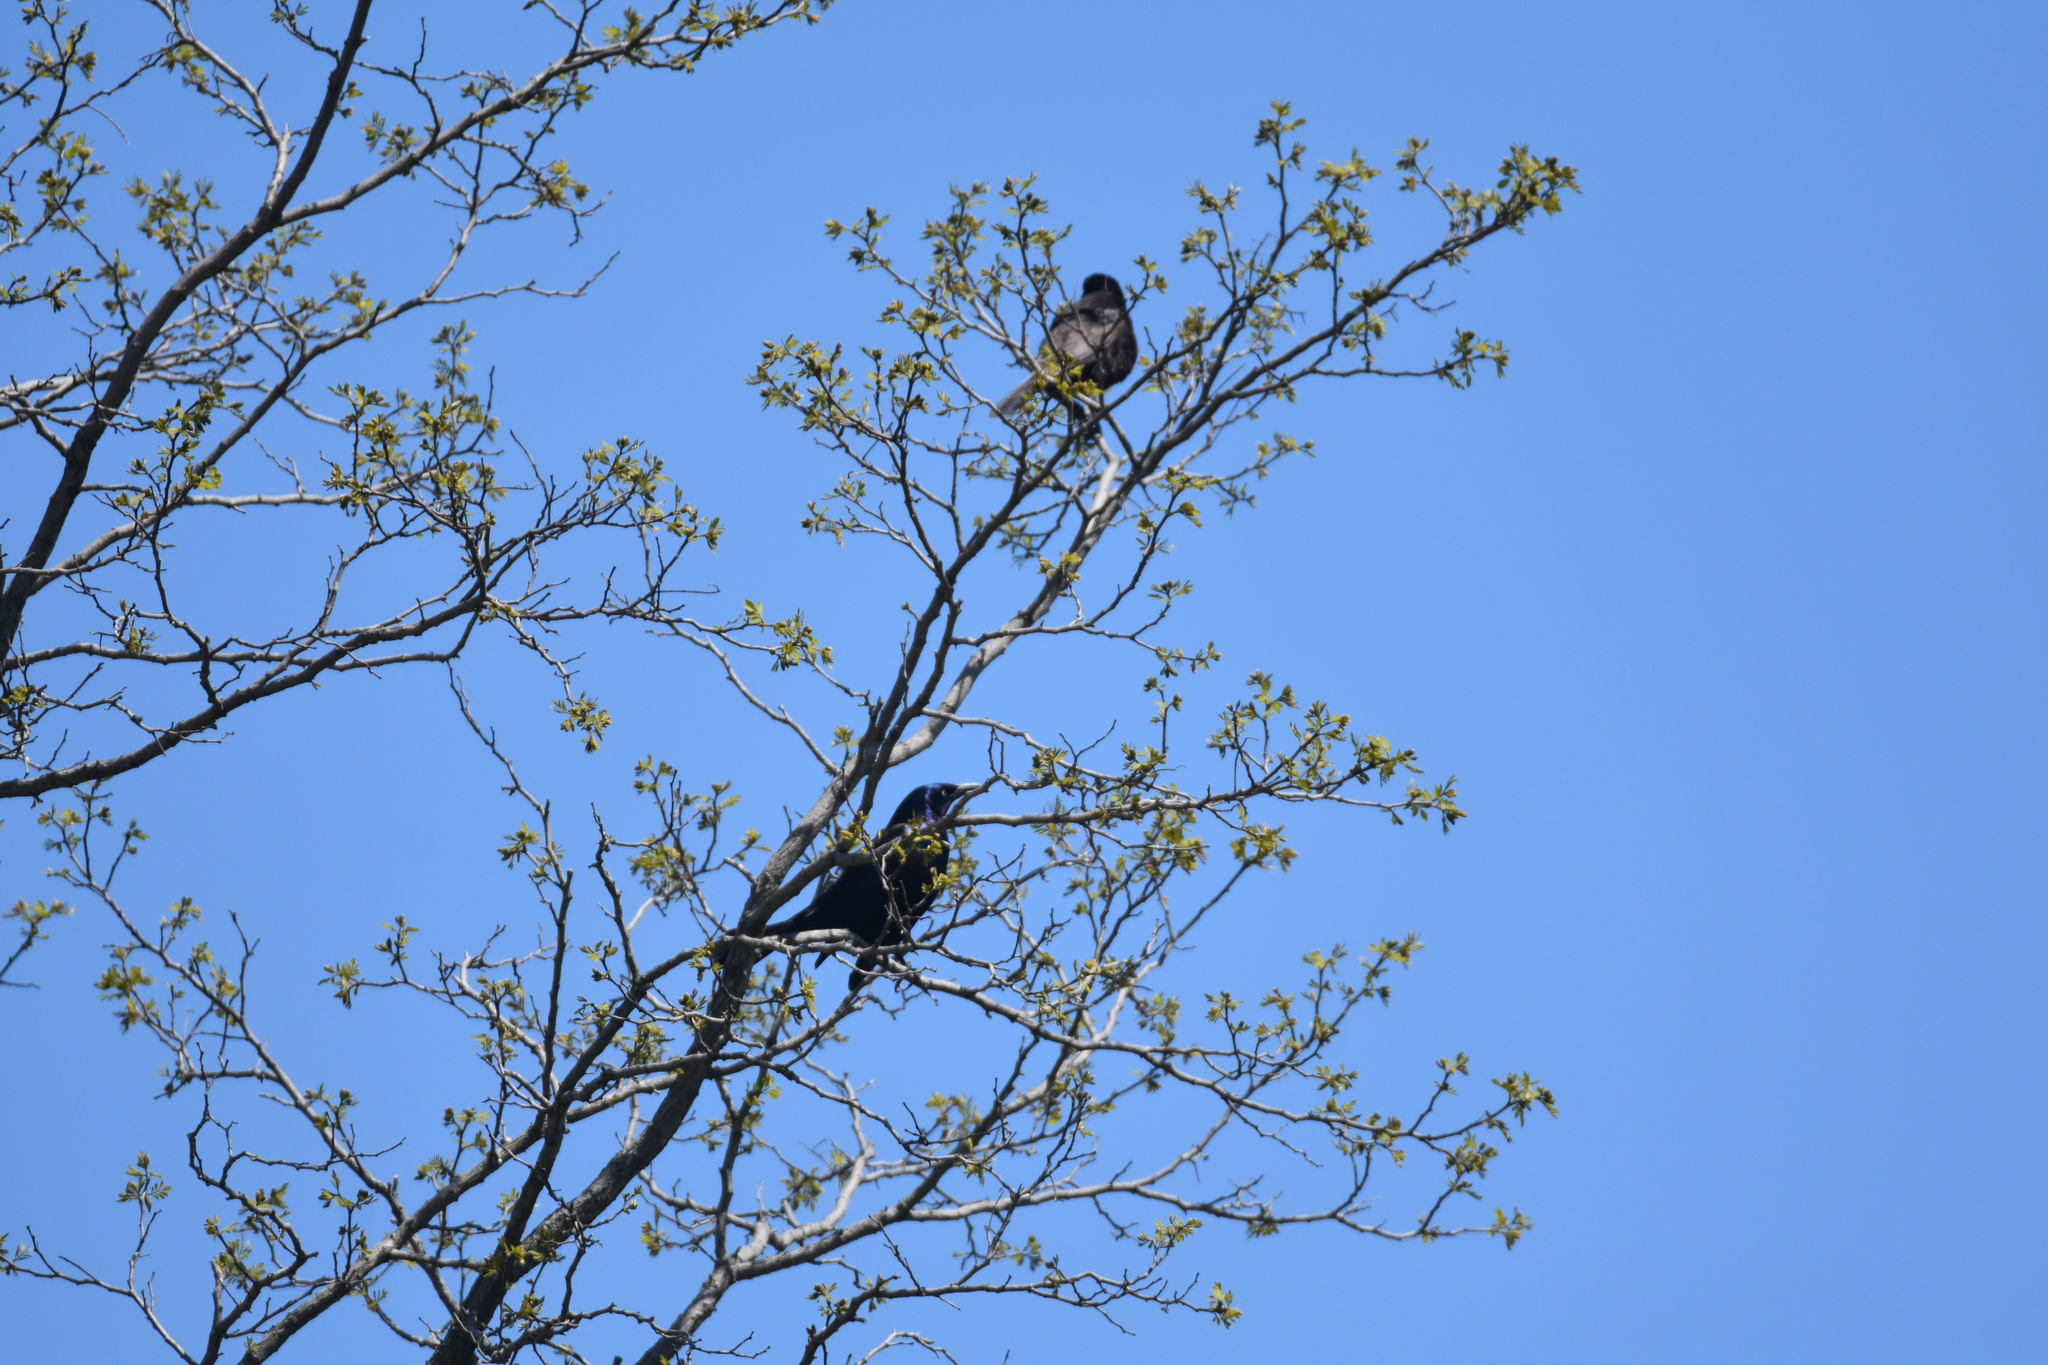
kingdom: Animalia
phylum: Chordata
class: Aves
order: Passeriformes
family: Icteridae
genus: Quiscalus
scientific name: Quiscalus quiscula
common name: Common grackle
